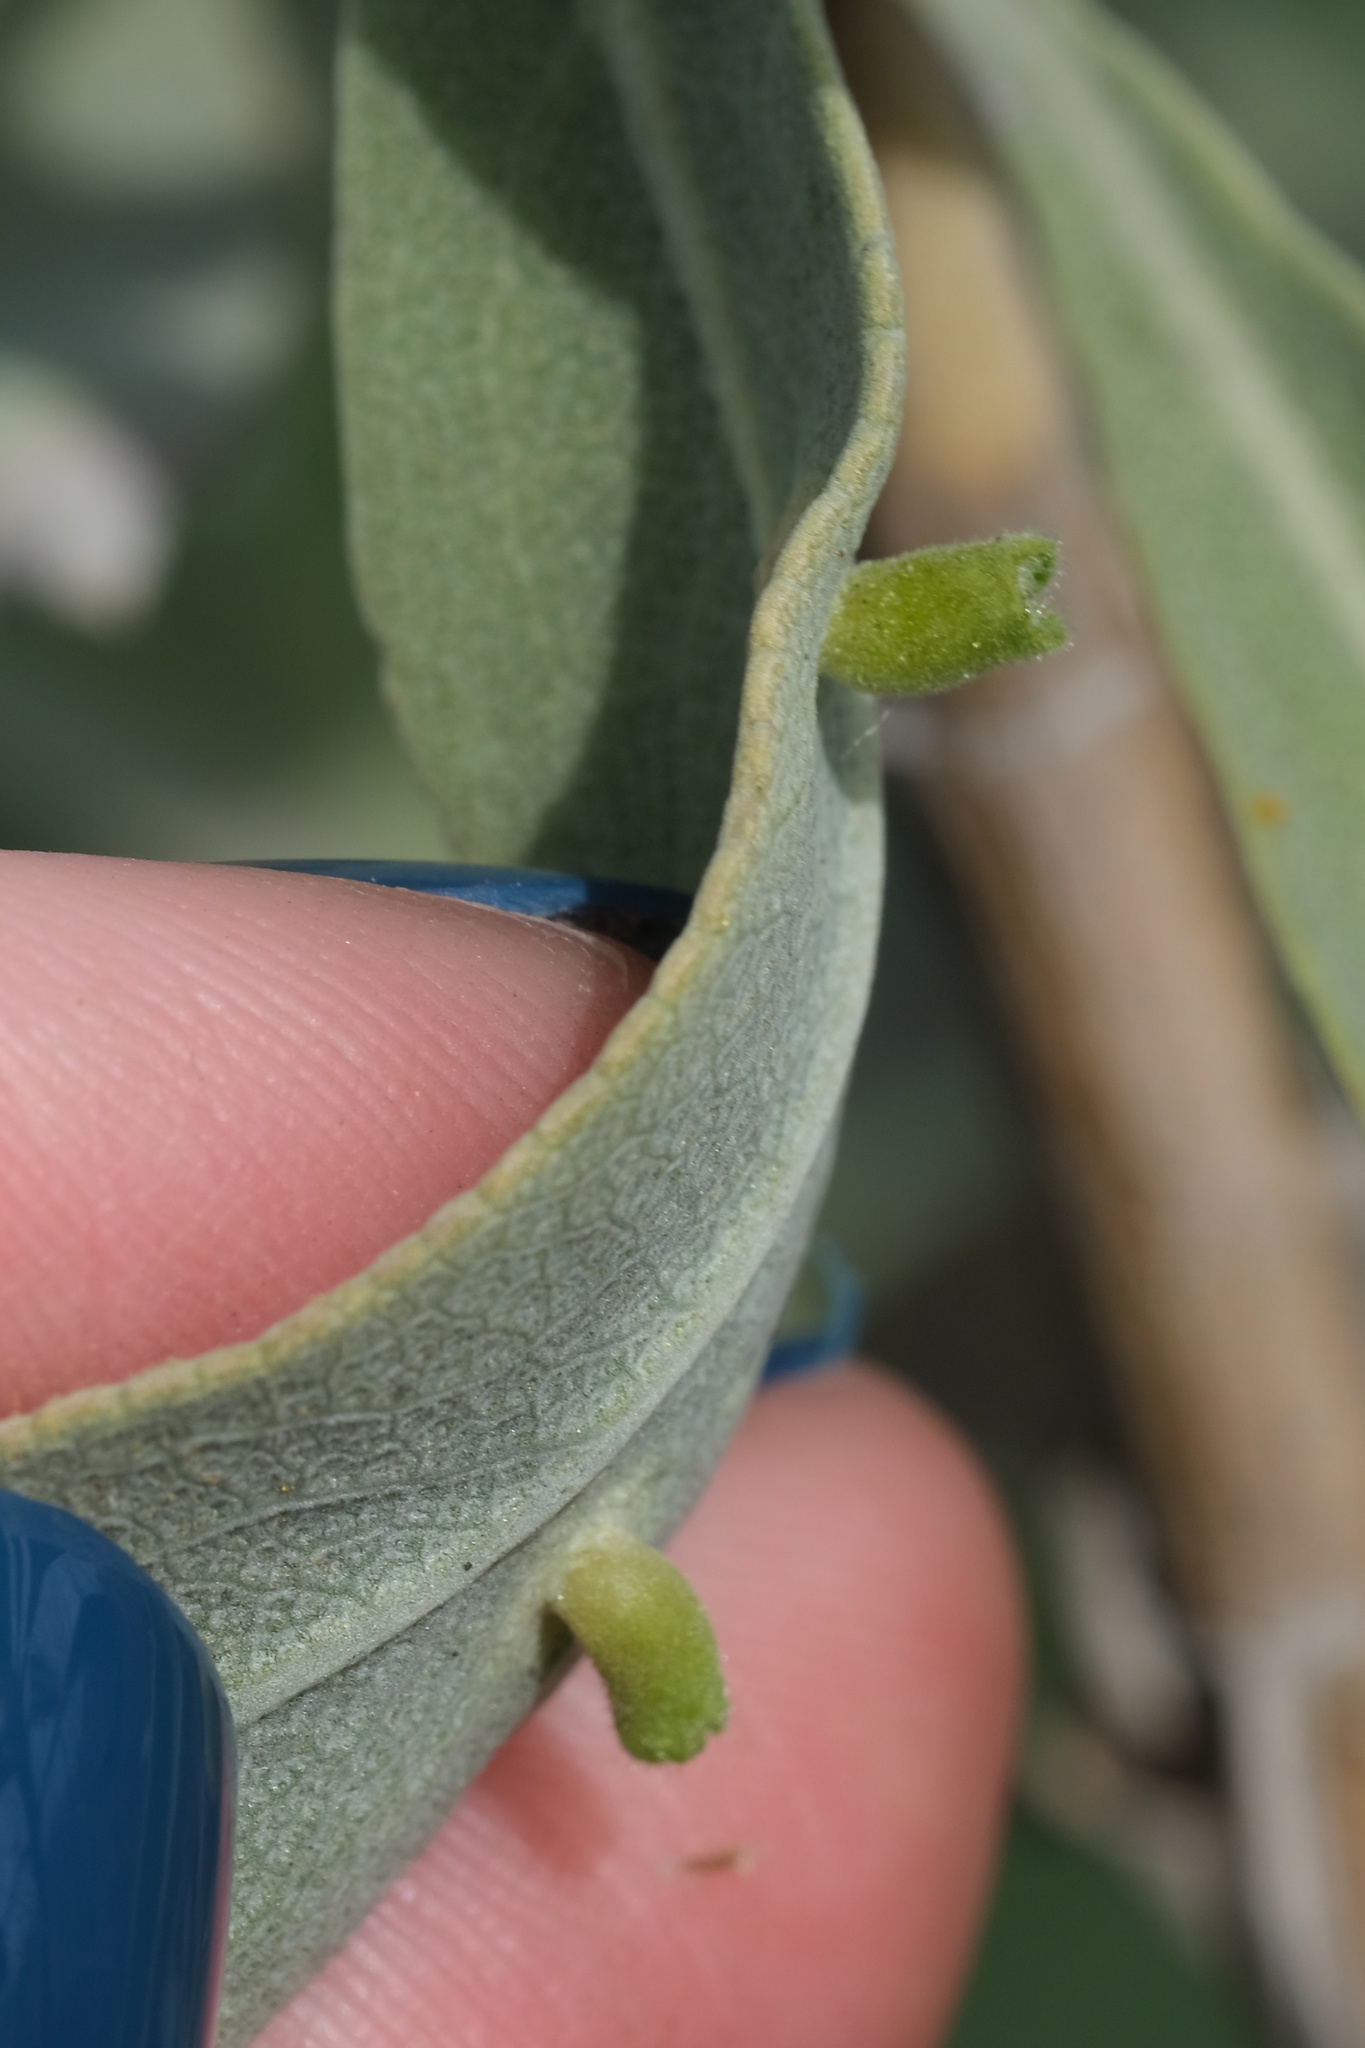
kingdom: Animalia
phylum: Arthropoda
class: Insecta
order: Diptera
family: Cecidomyiidae
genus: Rhopalomyia
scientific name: Rhopalomyia audibertiae
